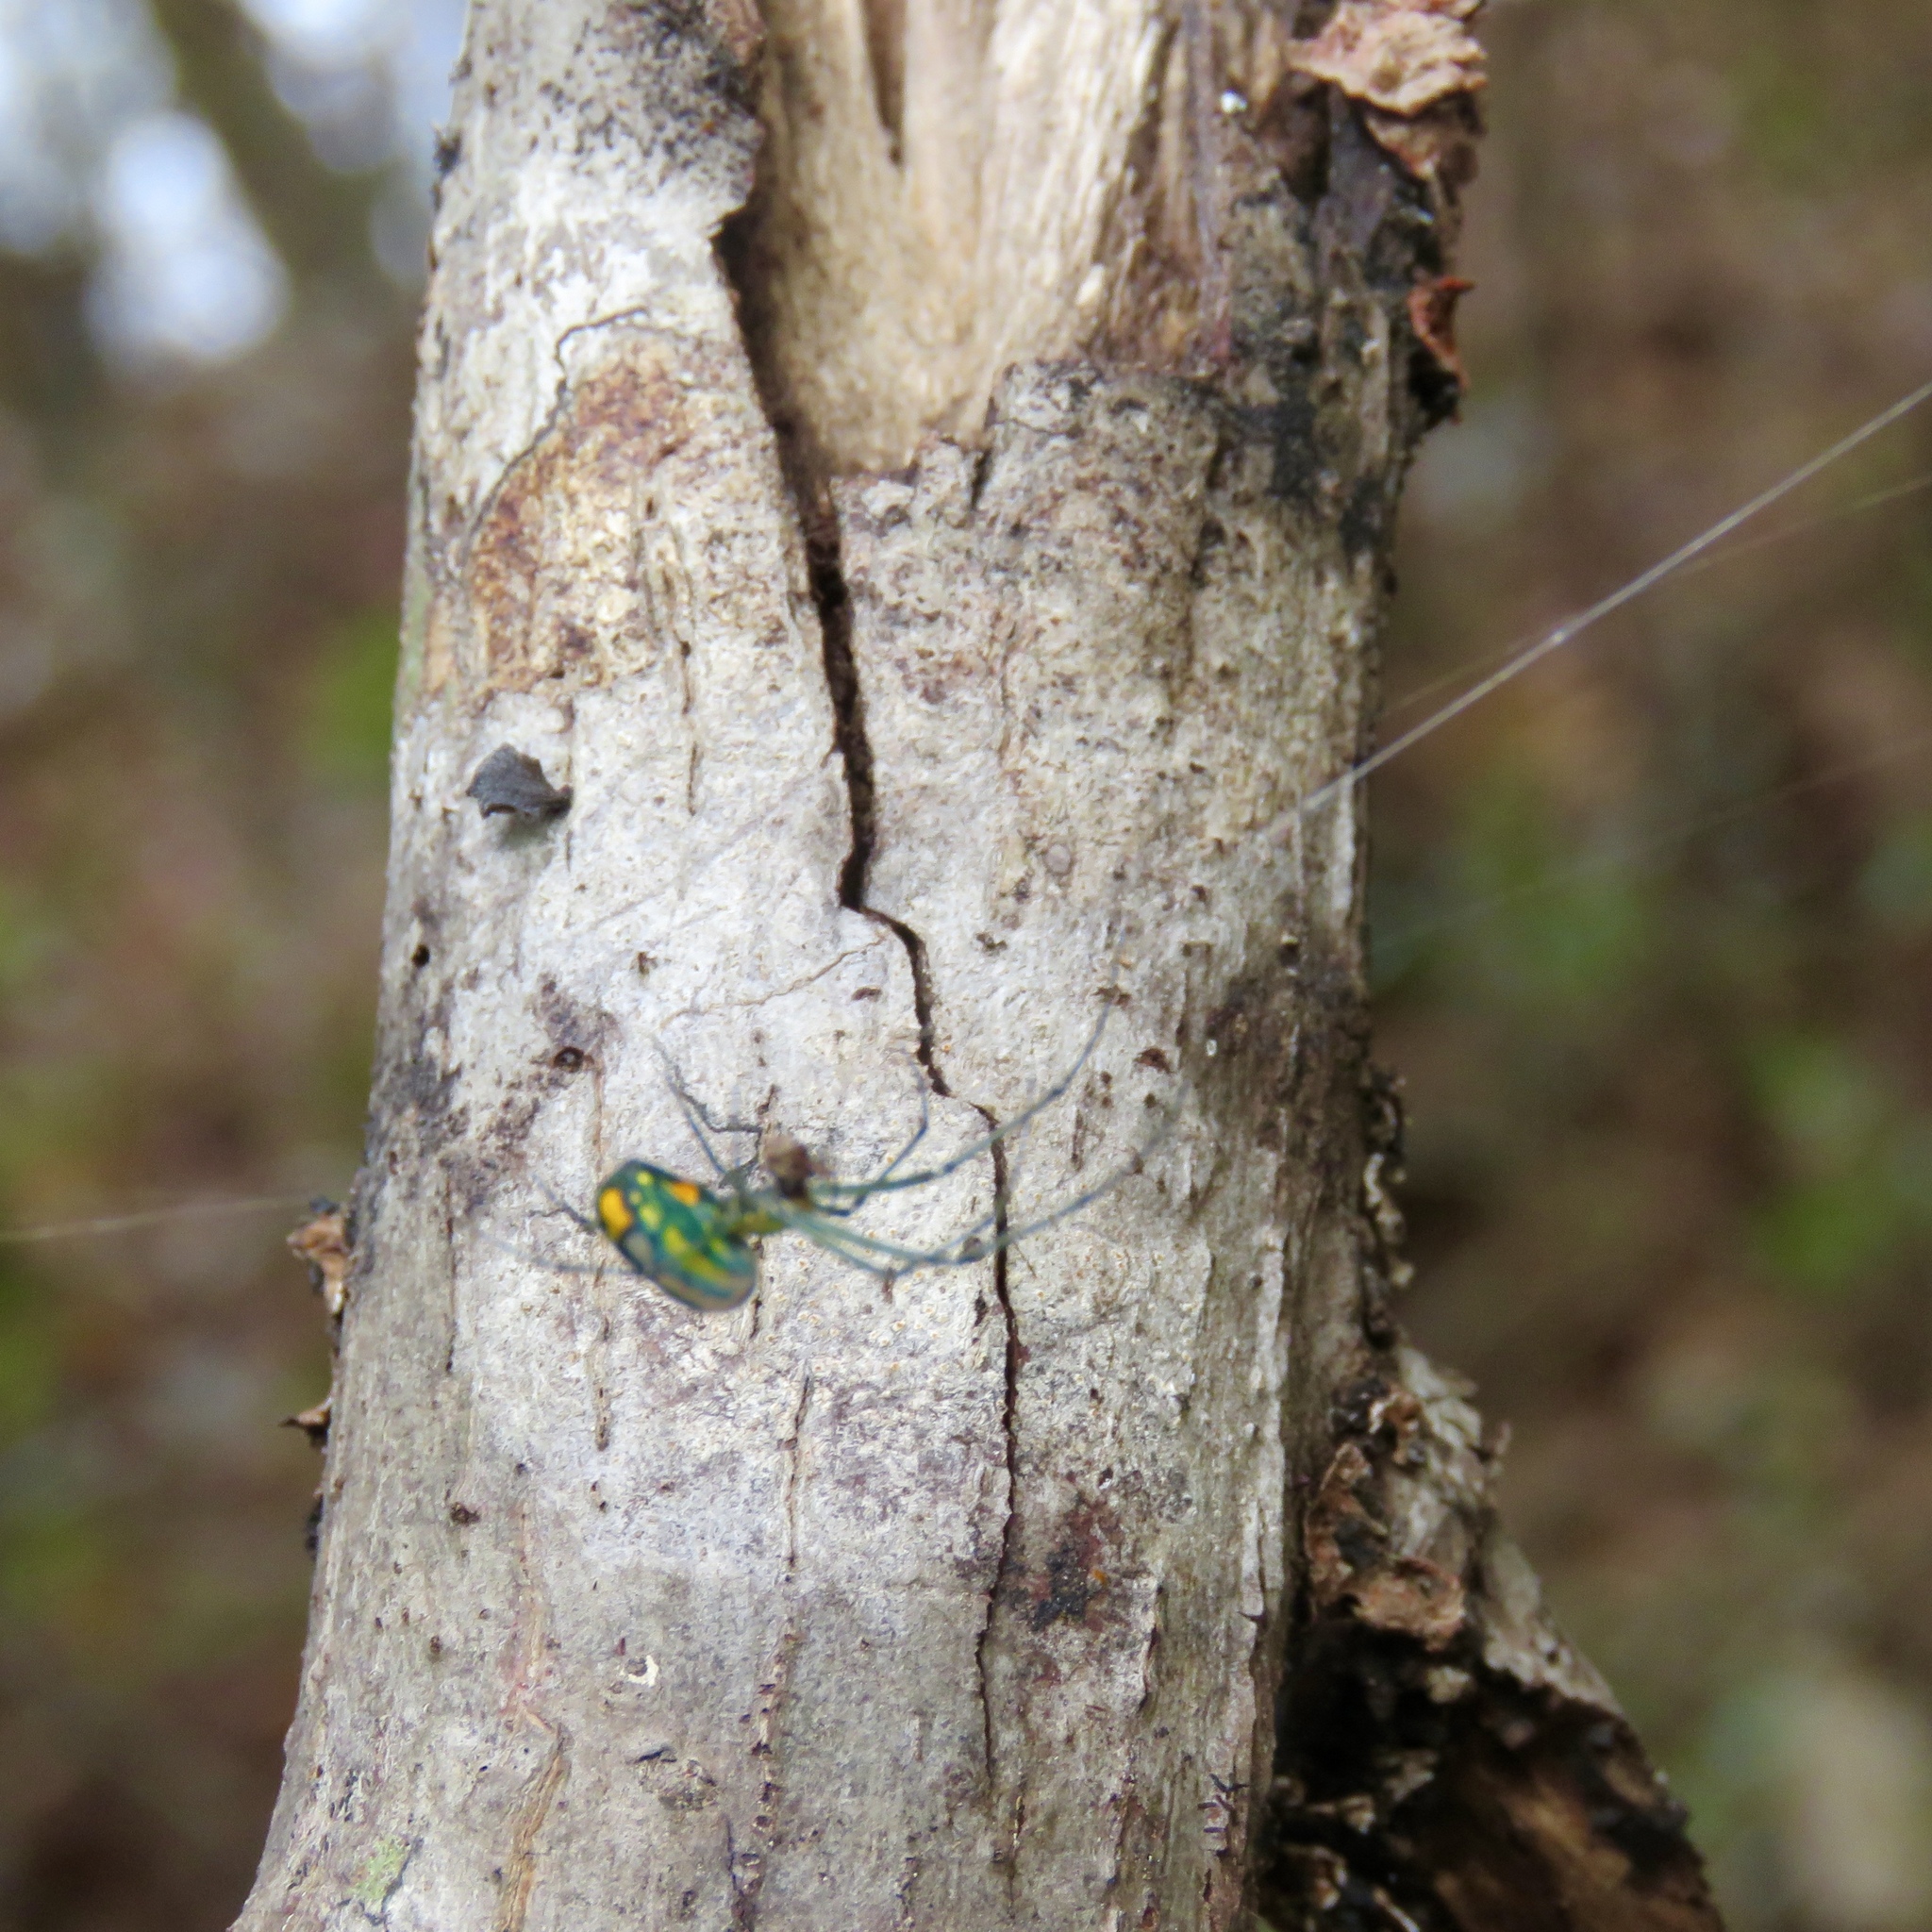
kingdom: Animalia
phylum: Arthropoda
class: Arachnida
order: Araneae
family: Tetragnathidae
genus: Leucauge
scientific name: Leucauge argyrobapta
